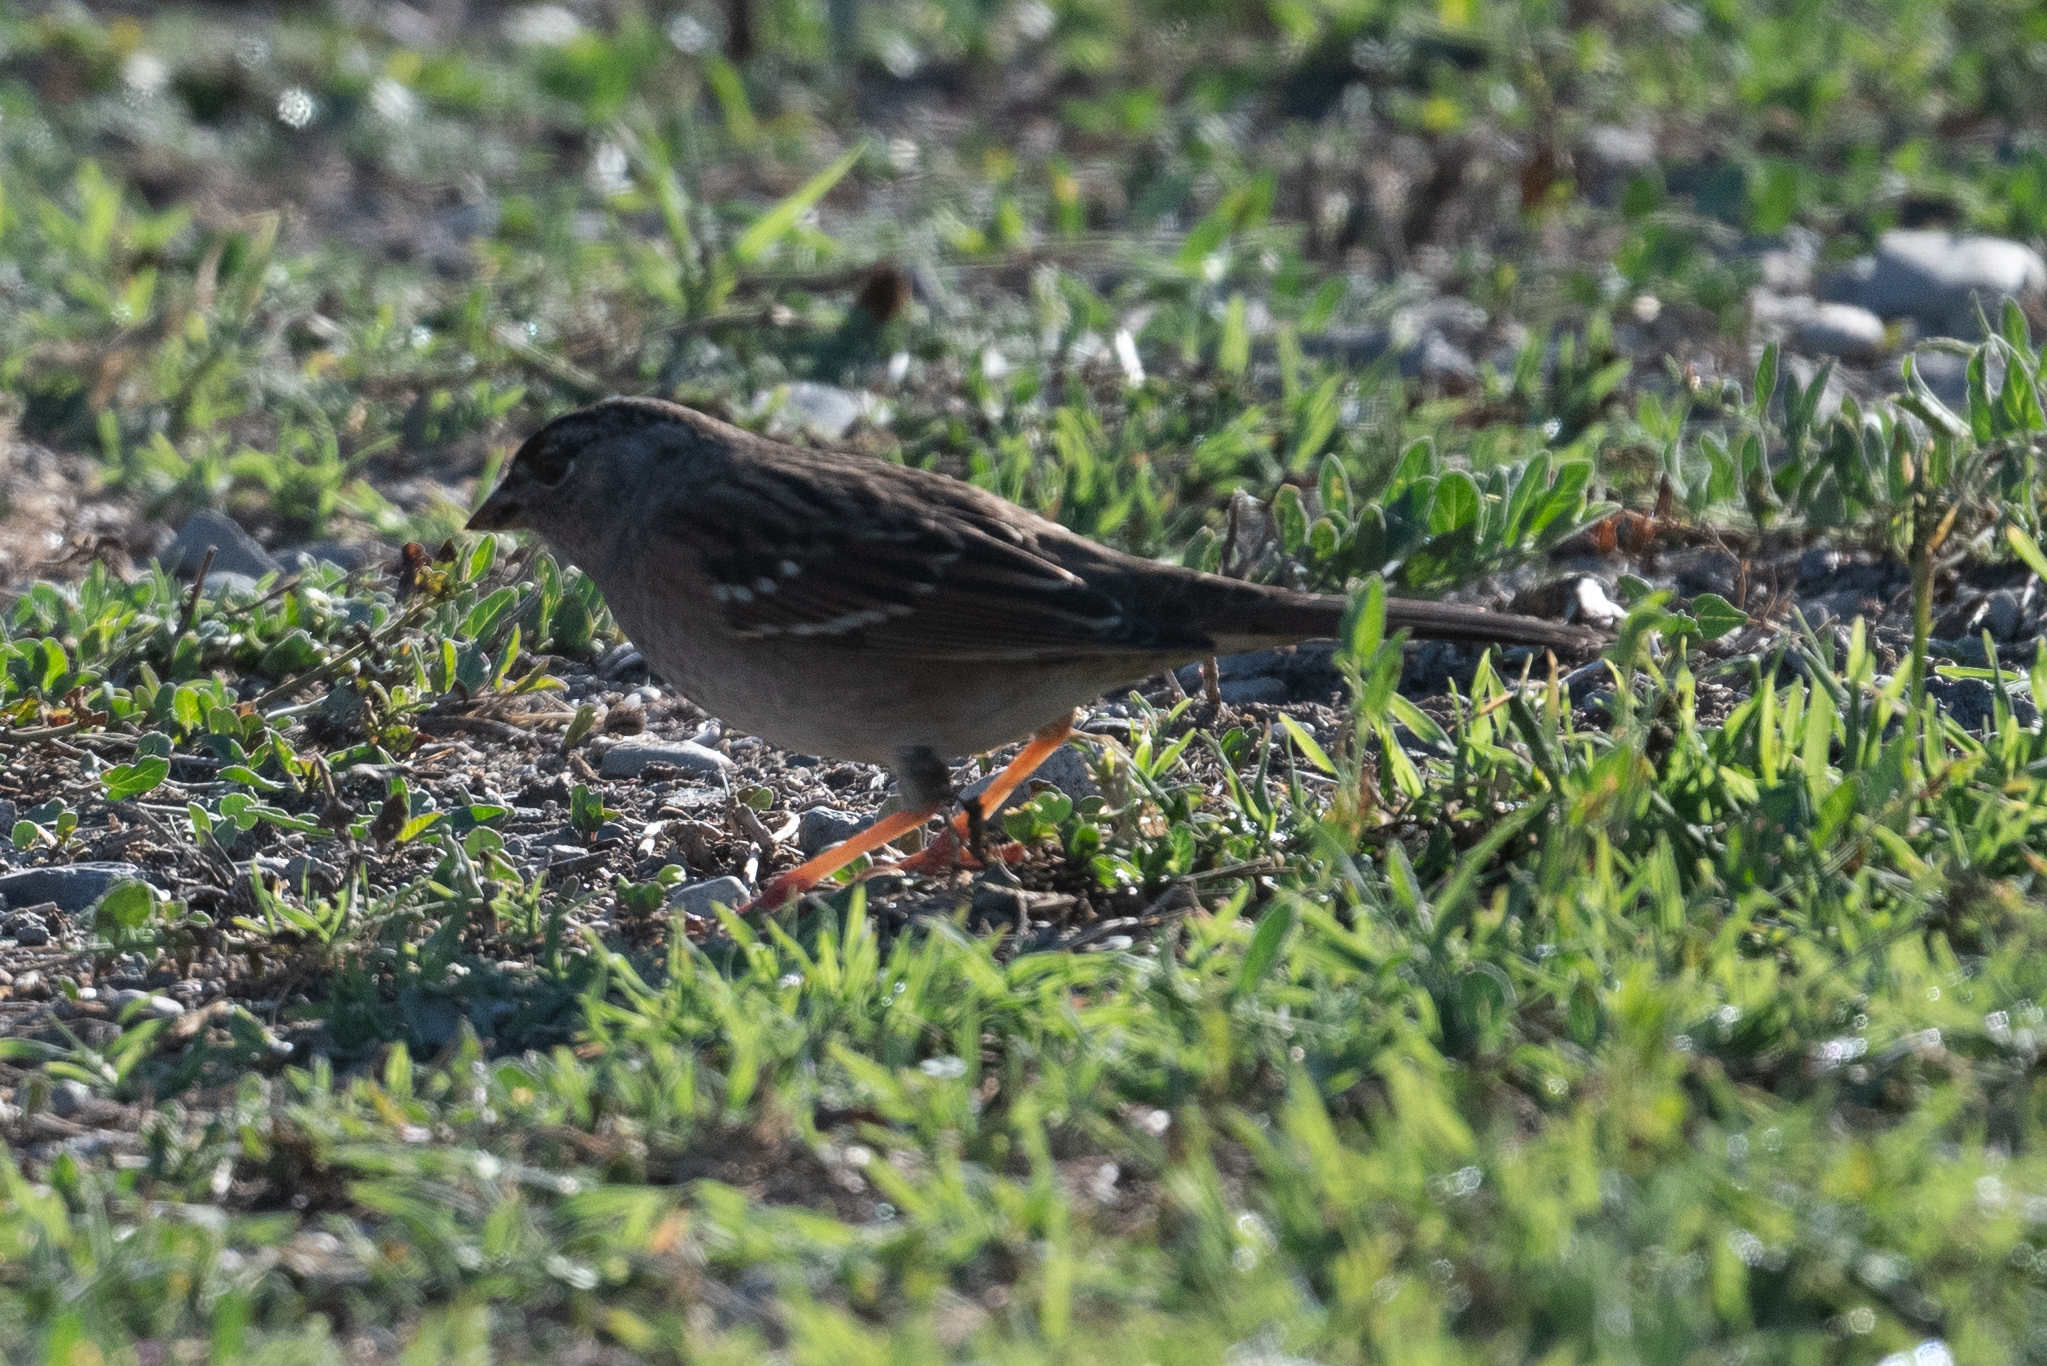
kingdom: Animalia
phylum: Chordata
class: Aves
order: Passeriformes
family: Passerellidae
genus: Zonotrichia
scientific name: Zonotrichia atricapilla
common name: Golden-crowned sparrow
